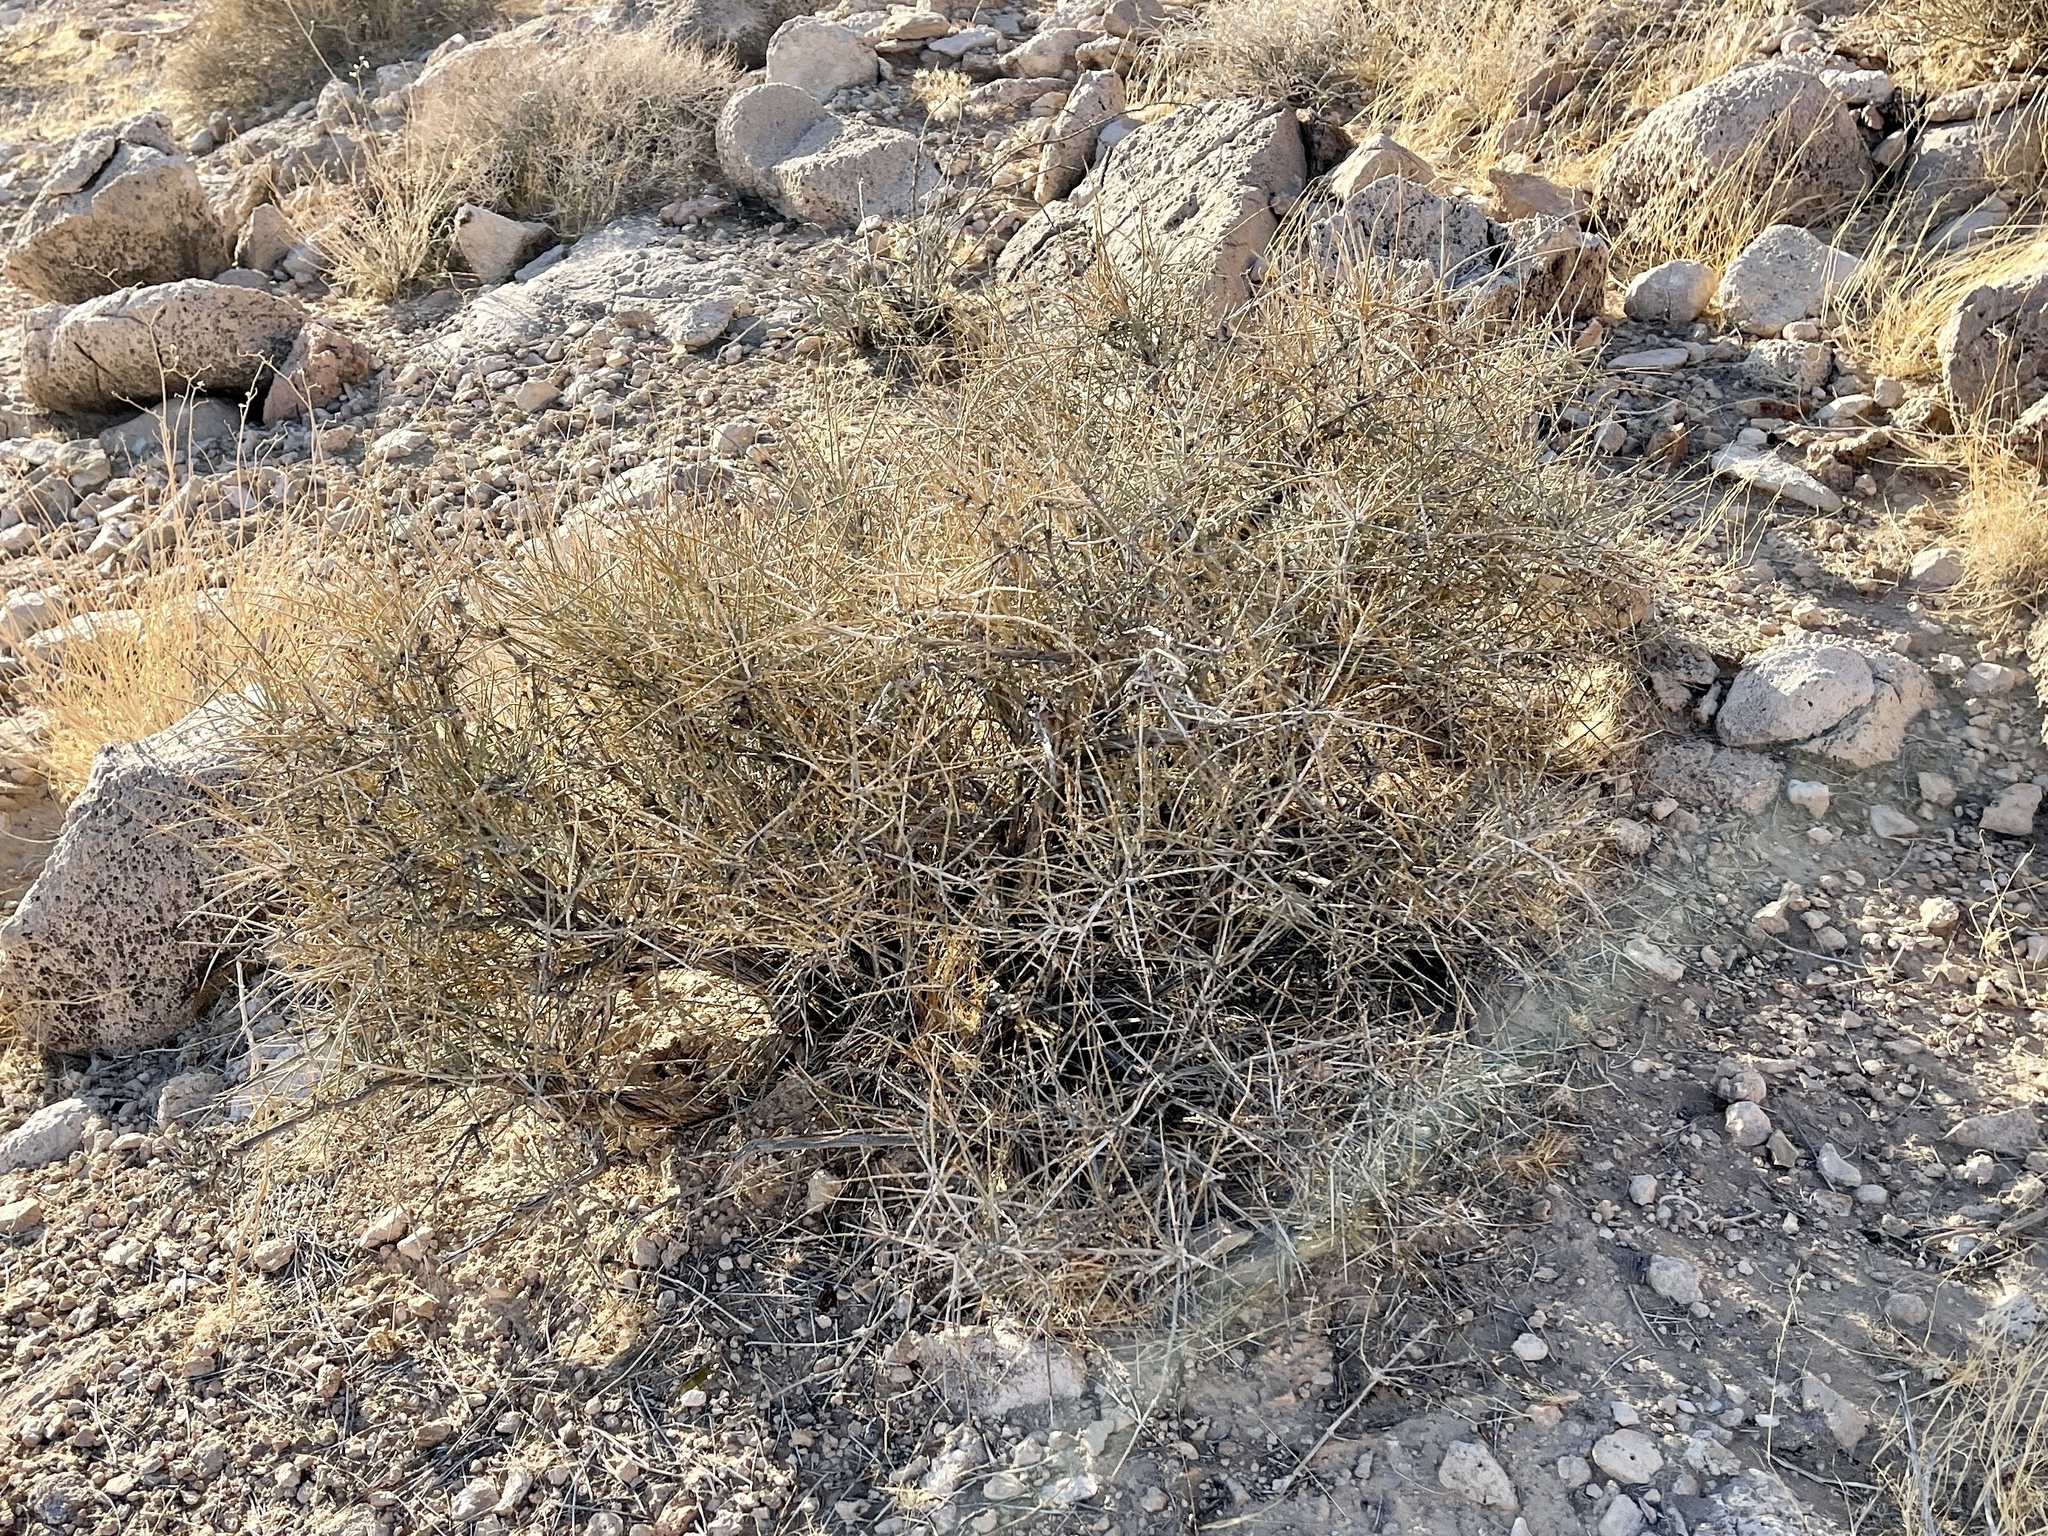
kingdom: Plantae
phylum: Tracheophyta
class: Gnetopsida
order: Ephedrales
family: Ephedraceae
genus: Ephedra
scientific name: Ephedra nevadensis
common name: Gray ephedra
